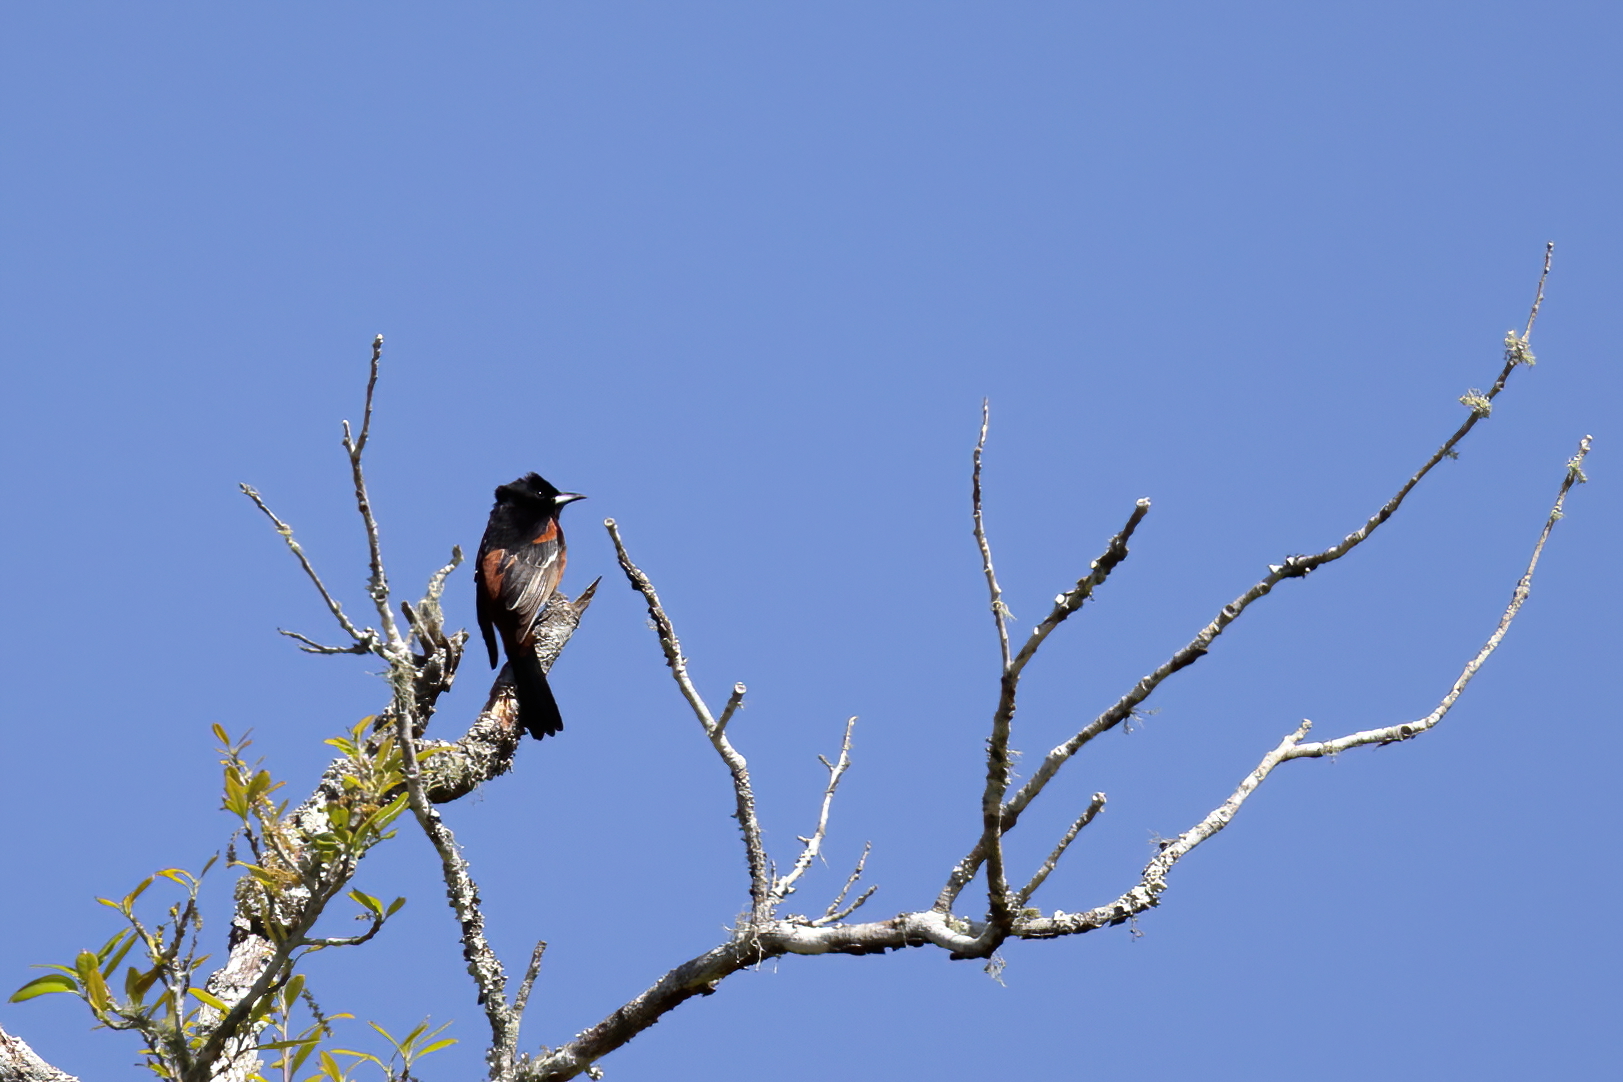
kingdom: Animalia
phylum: Chordata
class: Aves
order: Passeriformes
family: Icteridae
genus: Icterus
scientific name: Icterus spurius
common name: Orchard oriole
